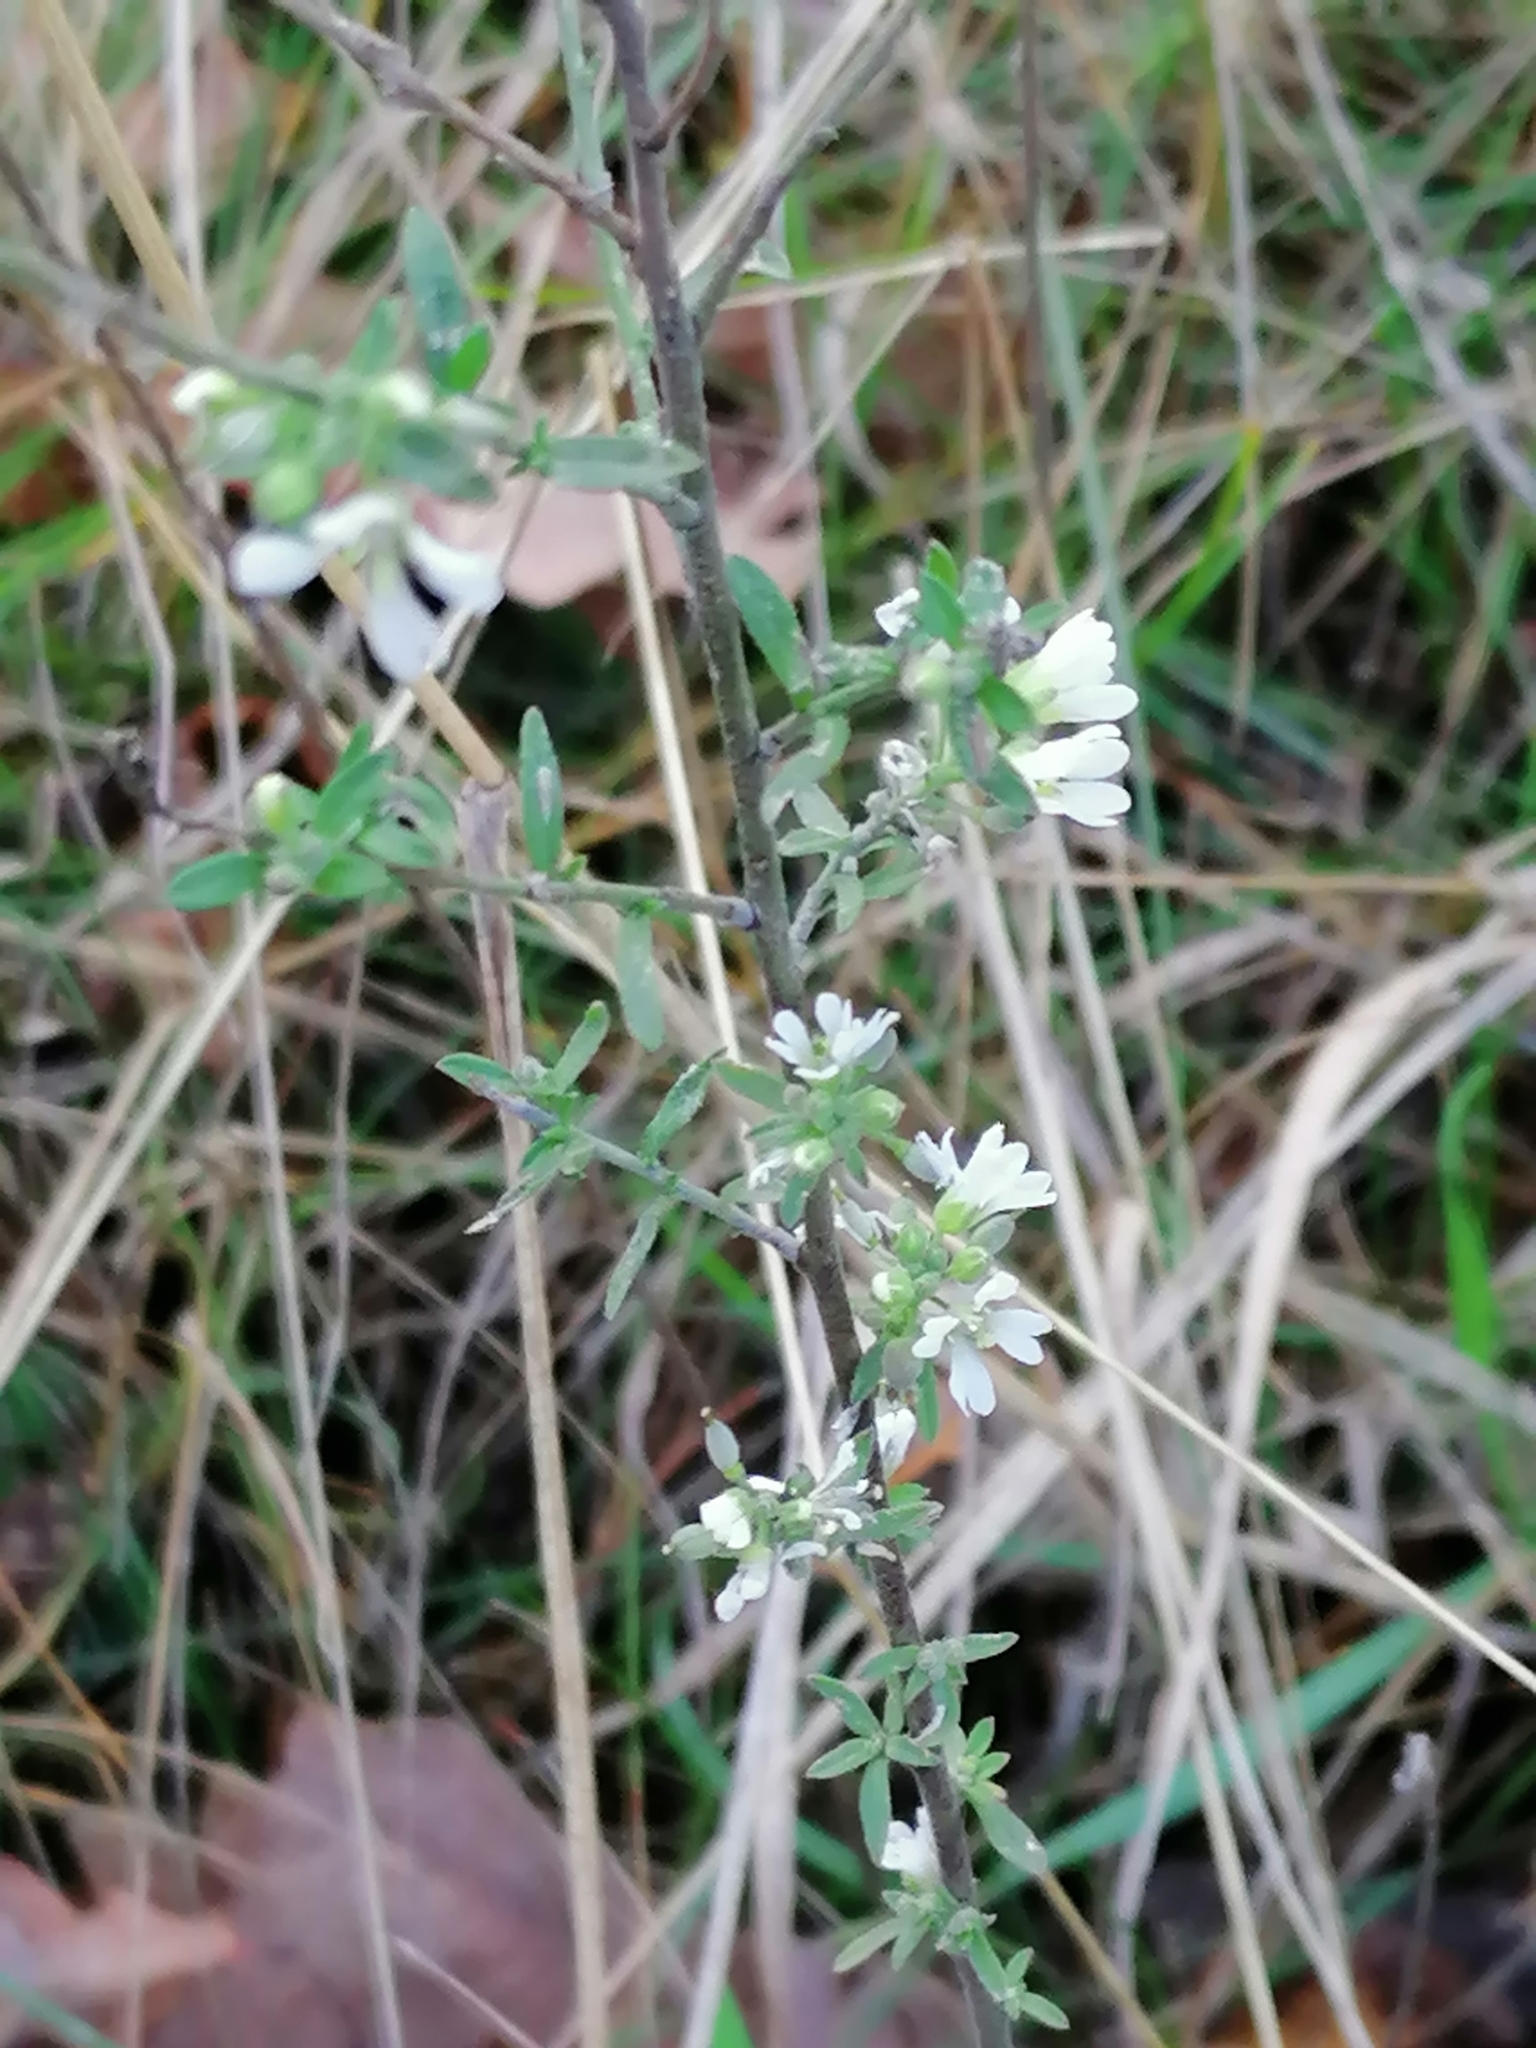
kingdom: Plantae
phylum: Tracheophyta
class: Magnoliopsida
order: Brassicales
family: Brassicaceae
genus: Berteroa
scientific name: Berteroa incana
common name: Hoary alison
